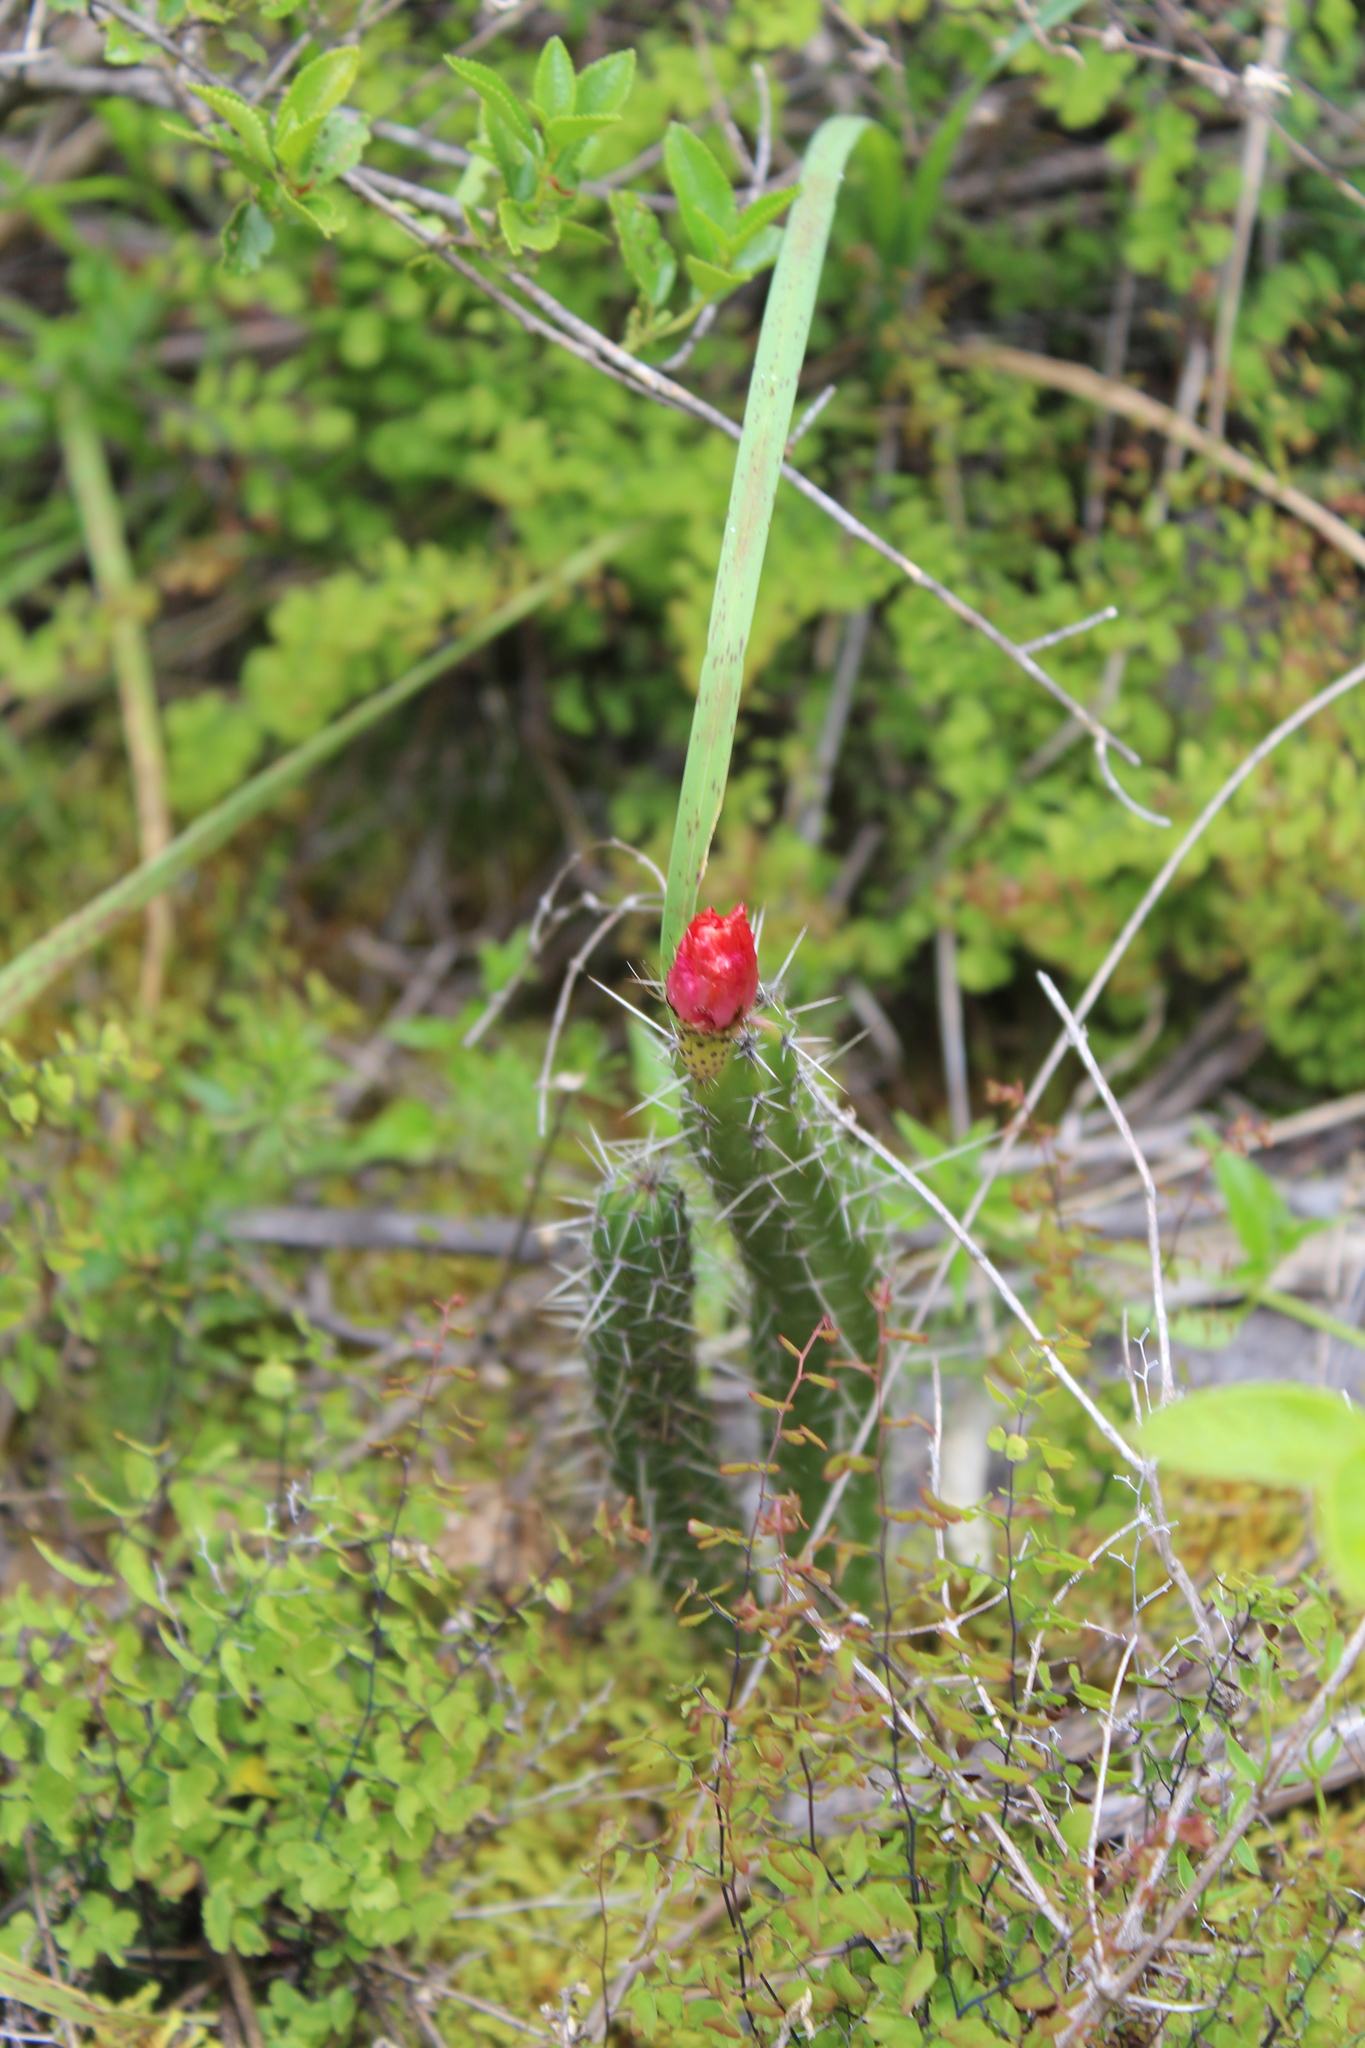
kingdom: Plantae
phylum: Tracheophyta
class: Magnoliopsida
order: Caryophyllales
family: Cactaceae
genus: Corryocactus
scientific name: Corryocactus erectus
